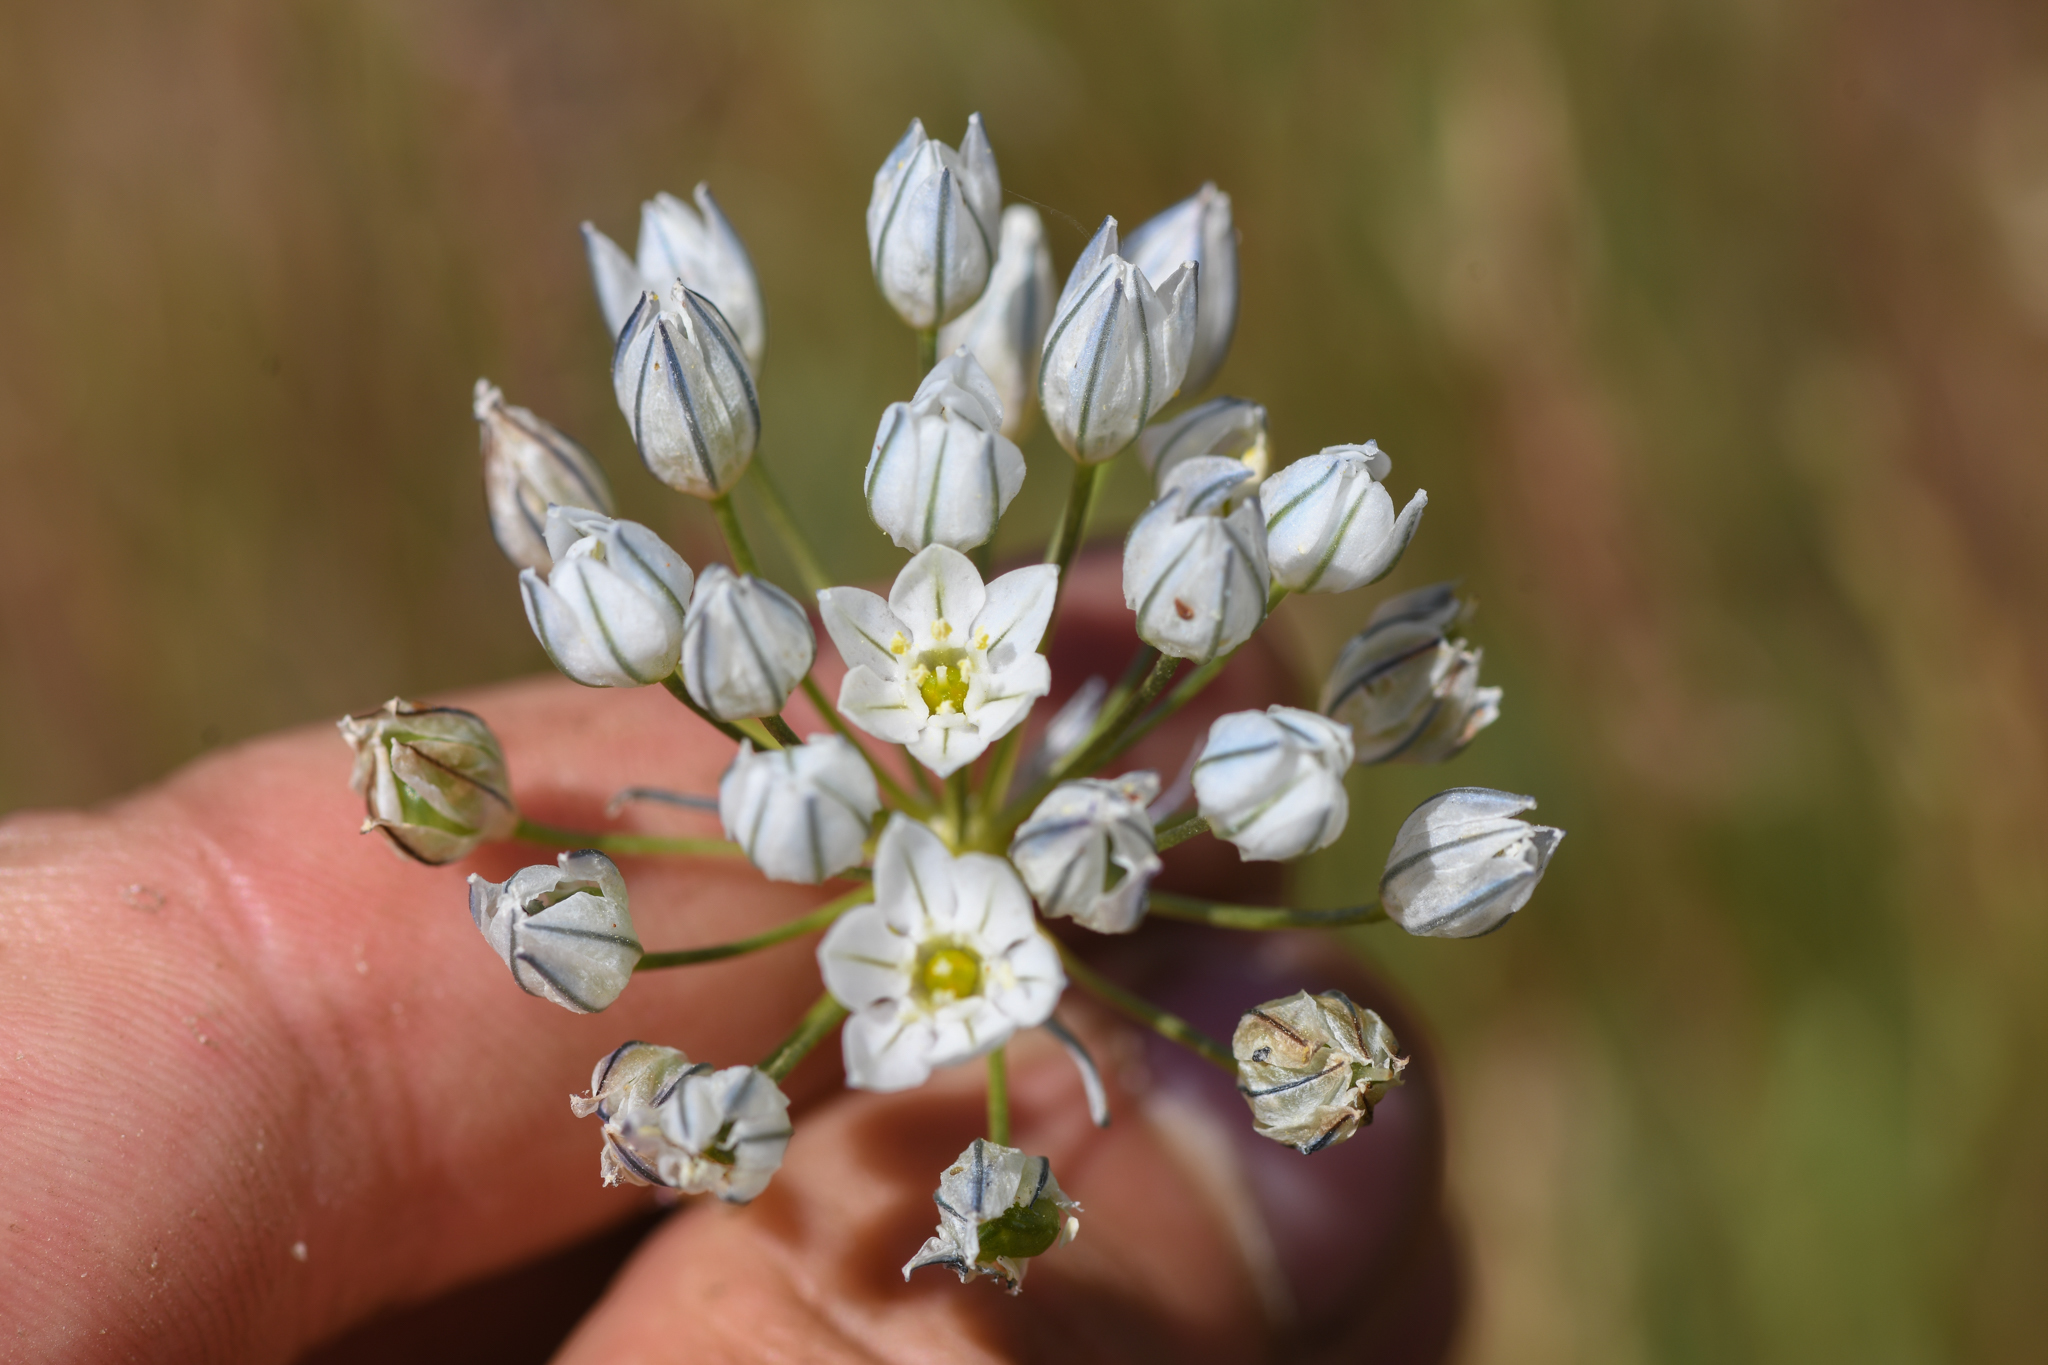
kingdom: Plantae
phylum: Tracheophyta
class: Liliopsida
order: Asparagales
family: Asparagaceae
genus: Triteleia
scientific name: Triteleia hyacinthina
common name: White brodiaea
